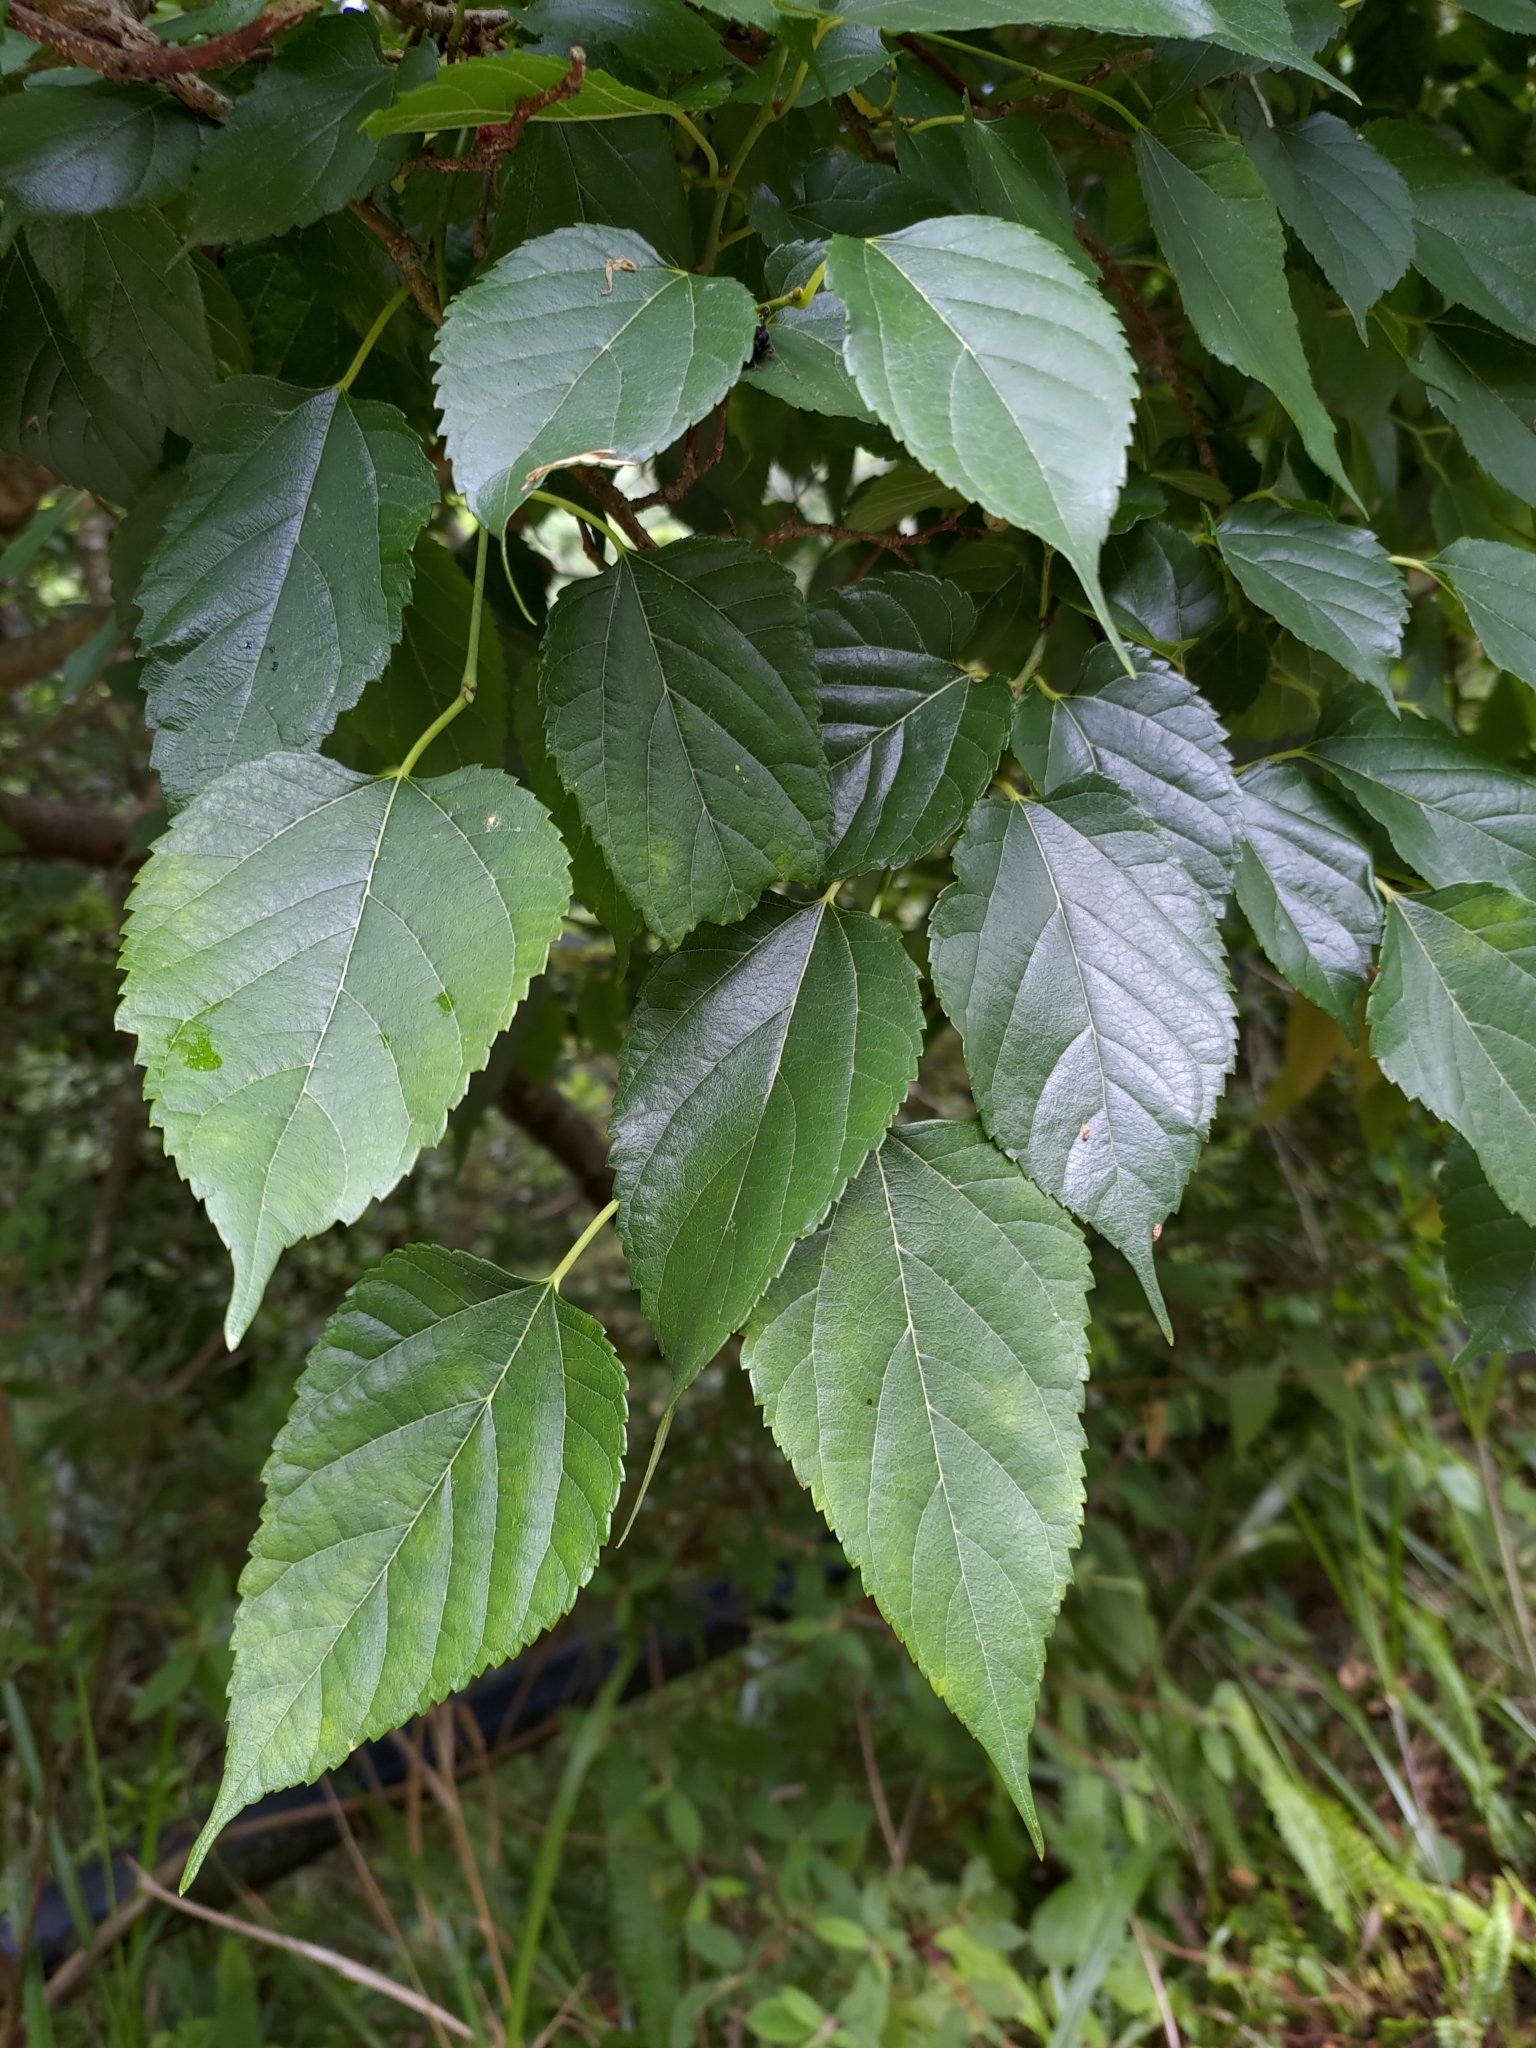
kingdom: Plantae
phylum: Tracheophyta
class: Magnoliopsida
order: Rosales
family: Moraceae
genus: Morus
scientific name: Morus indica
